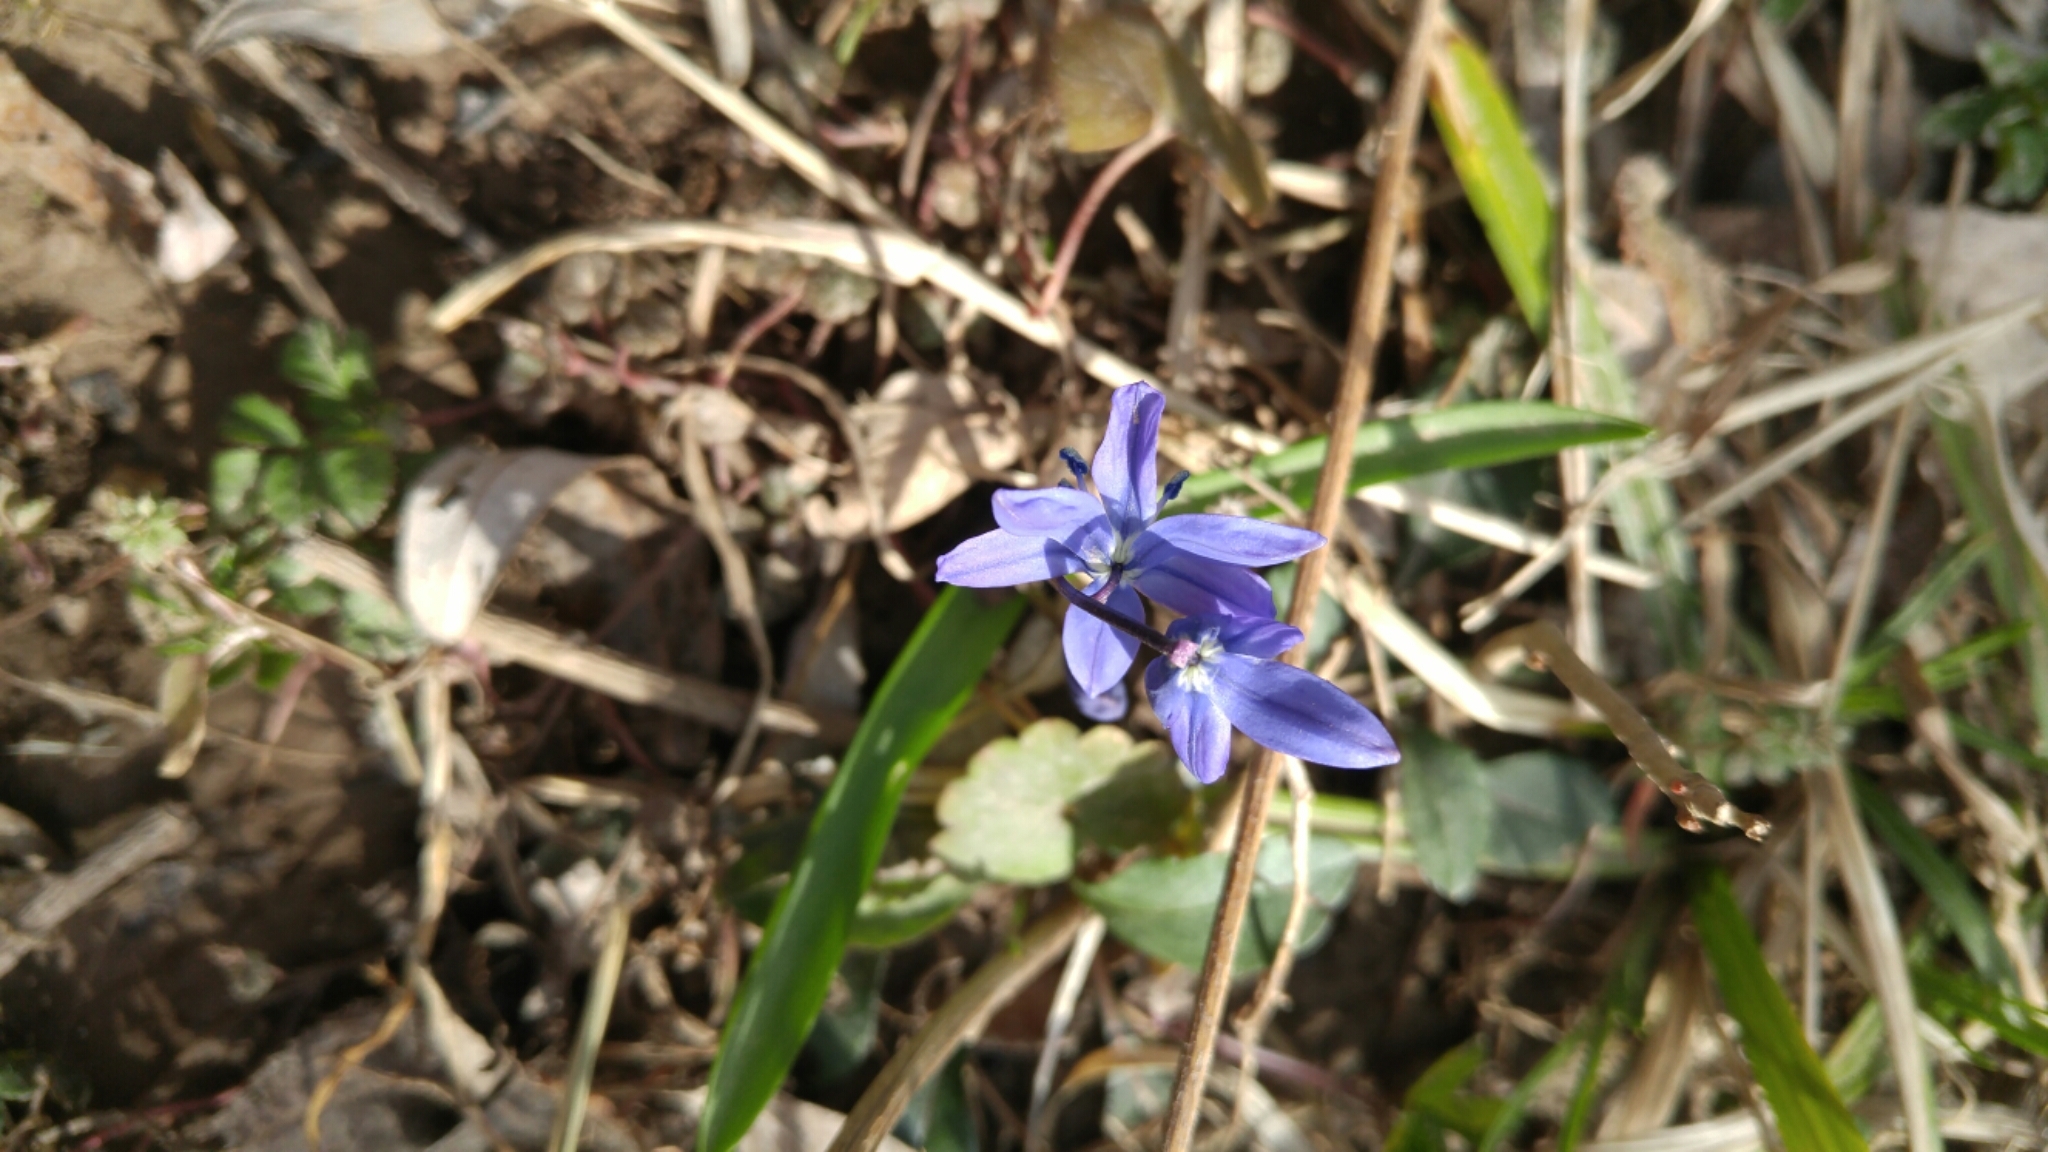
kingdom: Plantae
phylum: Tracheophyta
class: Liliopsida
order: Asparagales
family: Asparagaceae
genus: Scilla
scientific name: Scilla siberica
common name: Siberian squill
